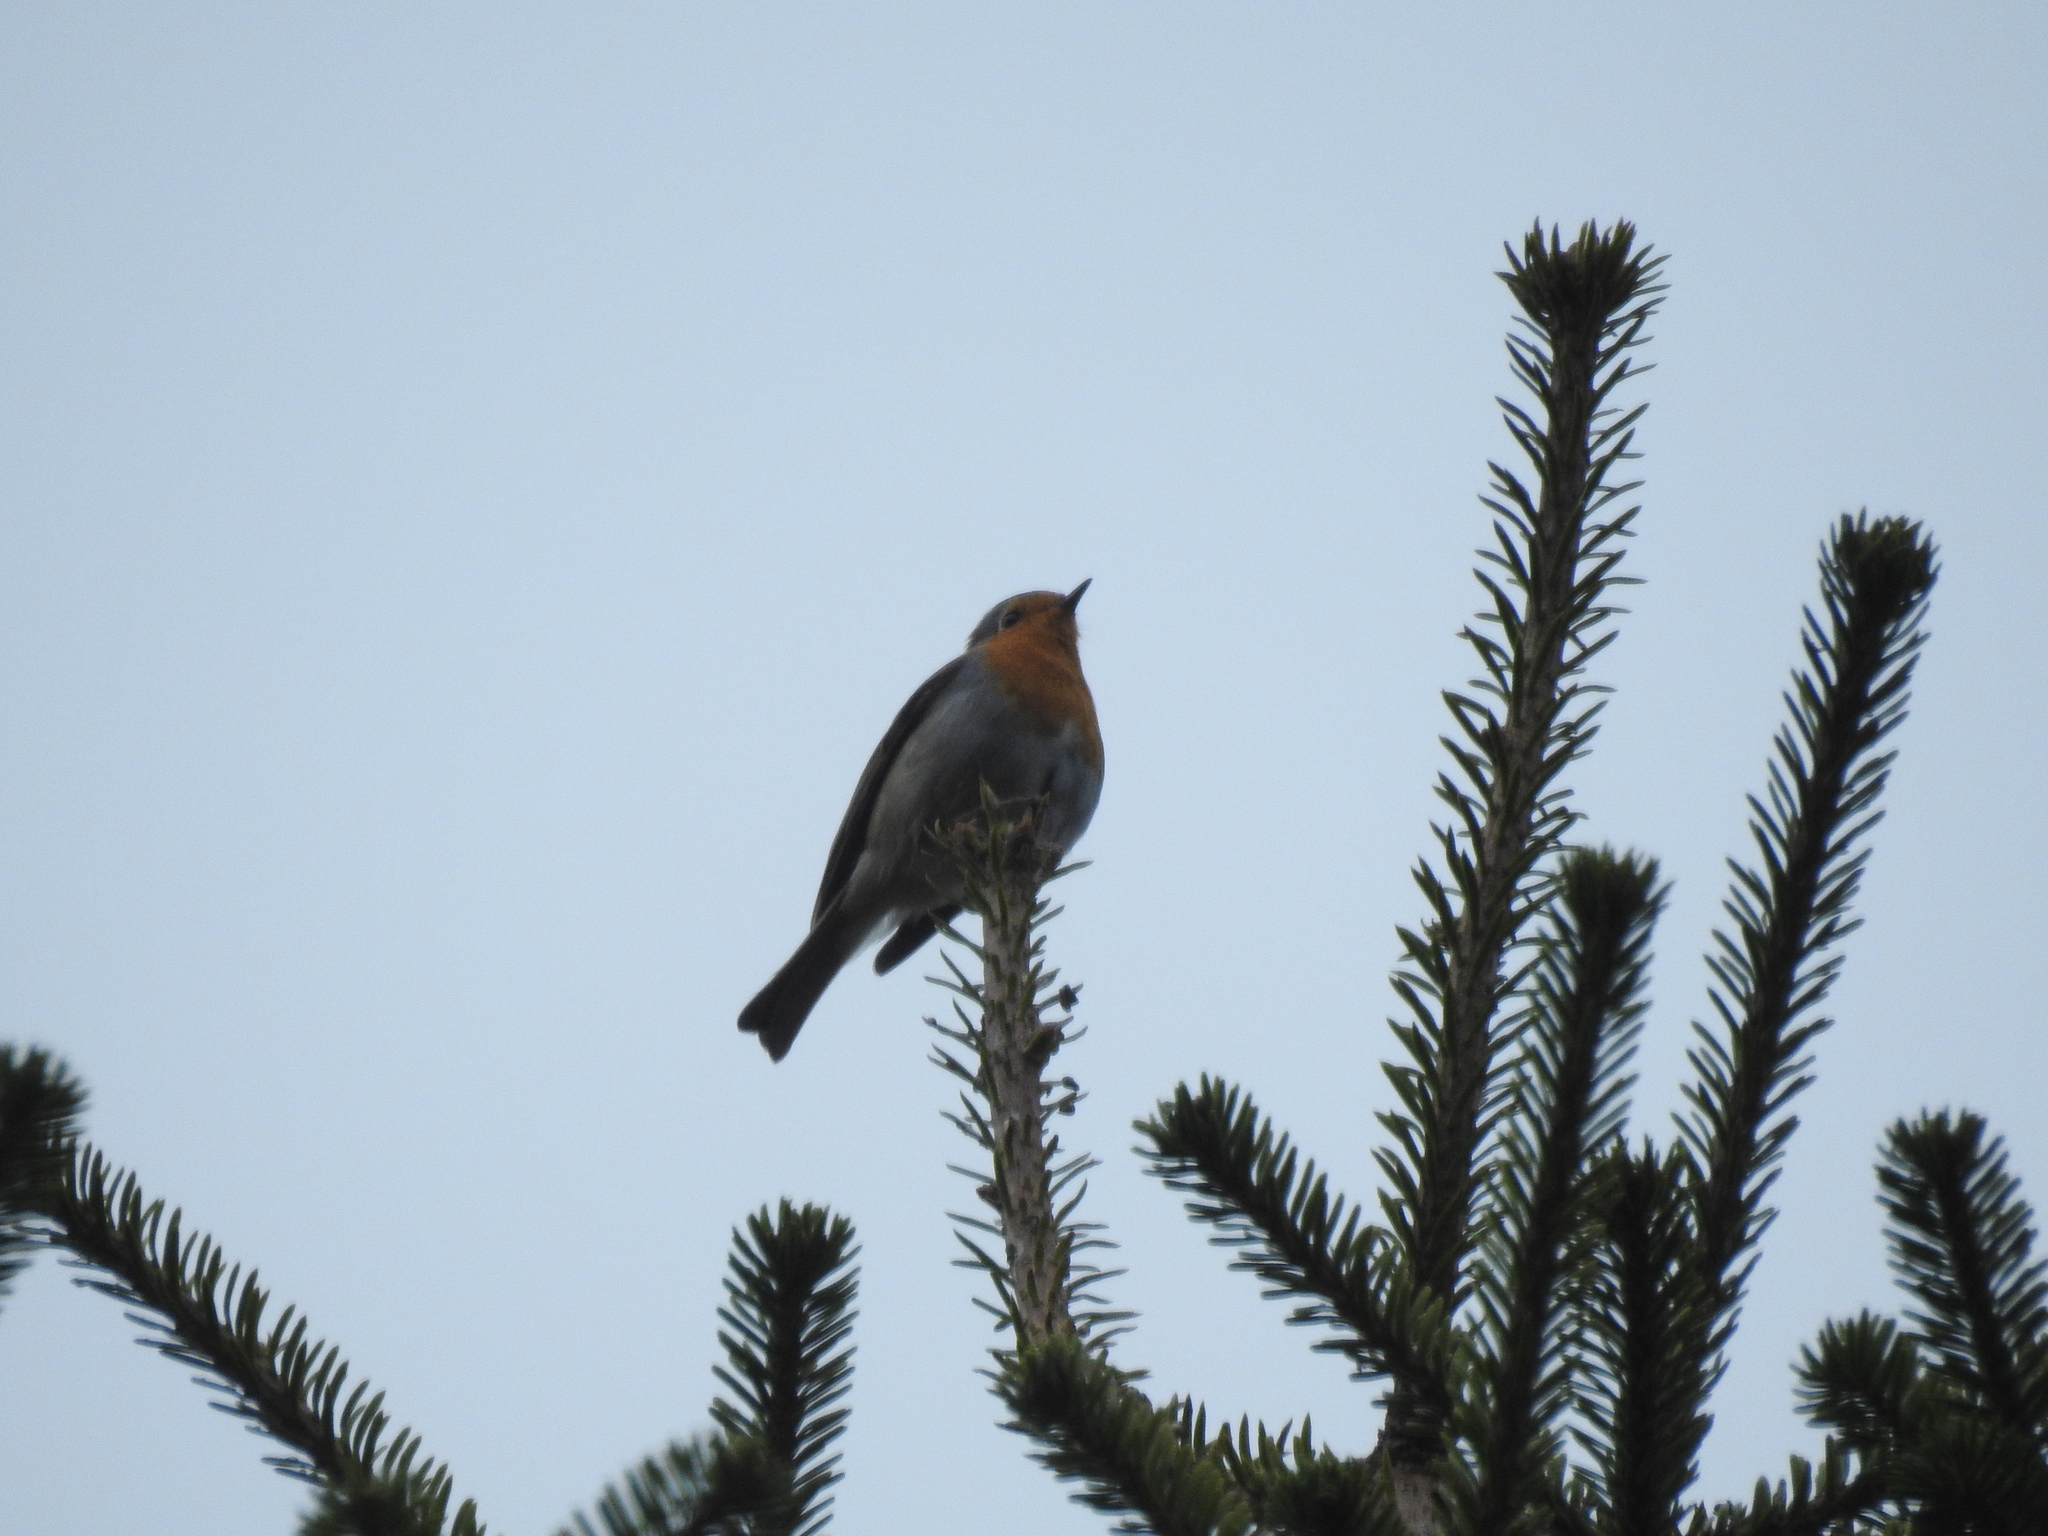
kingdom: Animalia
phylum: Chordata
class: Aves
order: Passeriformes
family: Muscicapidae
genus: Erithacus
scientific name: Erithacus rubecula
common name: European robin
